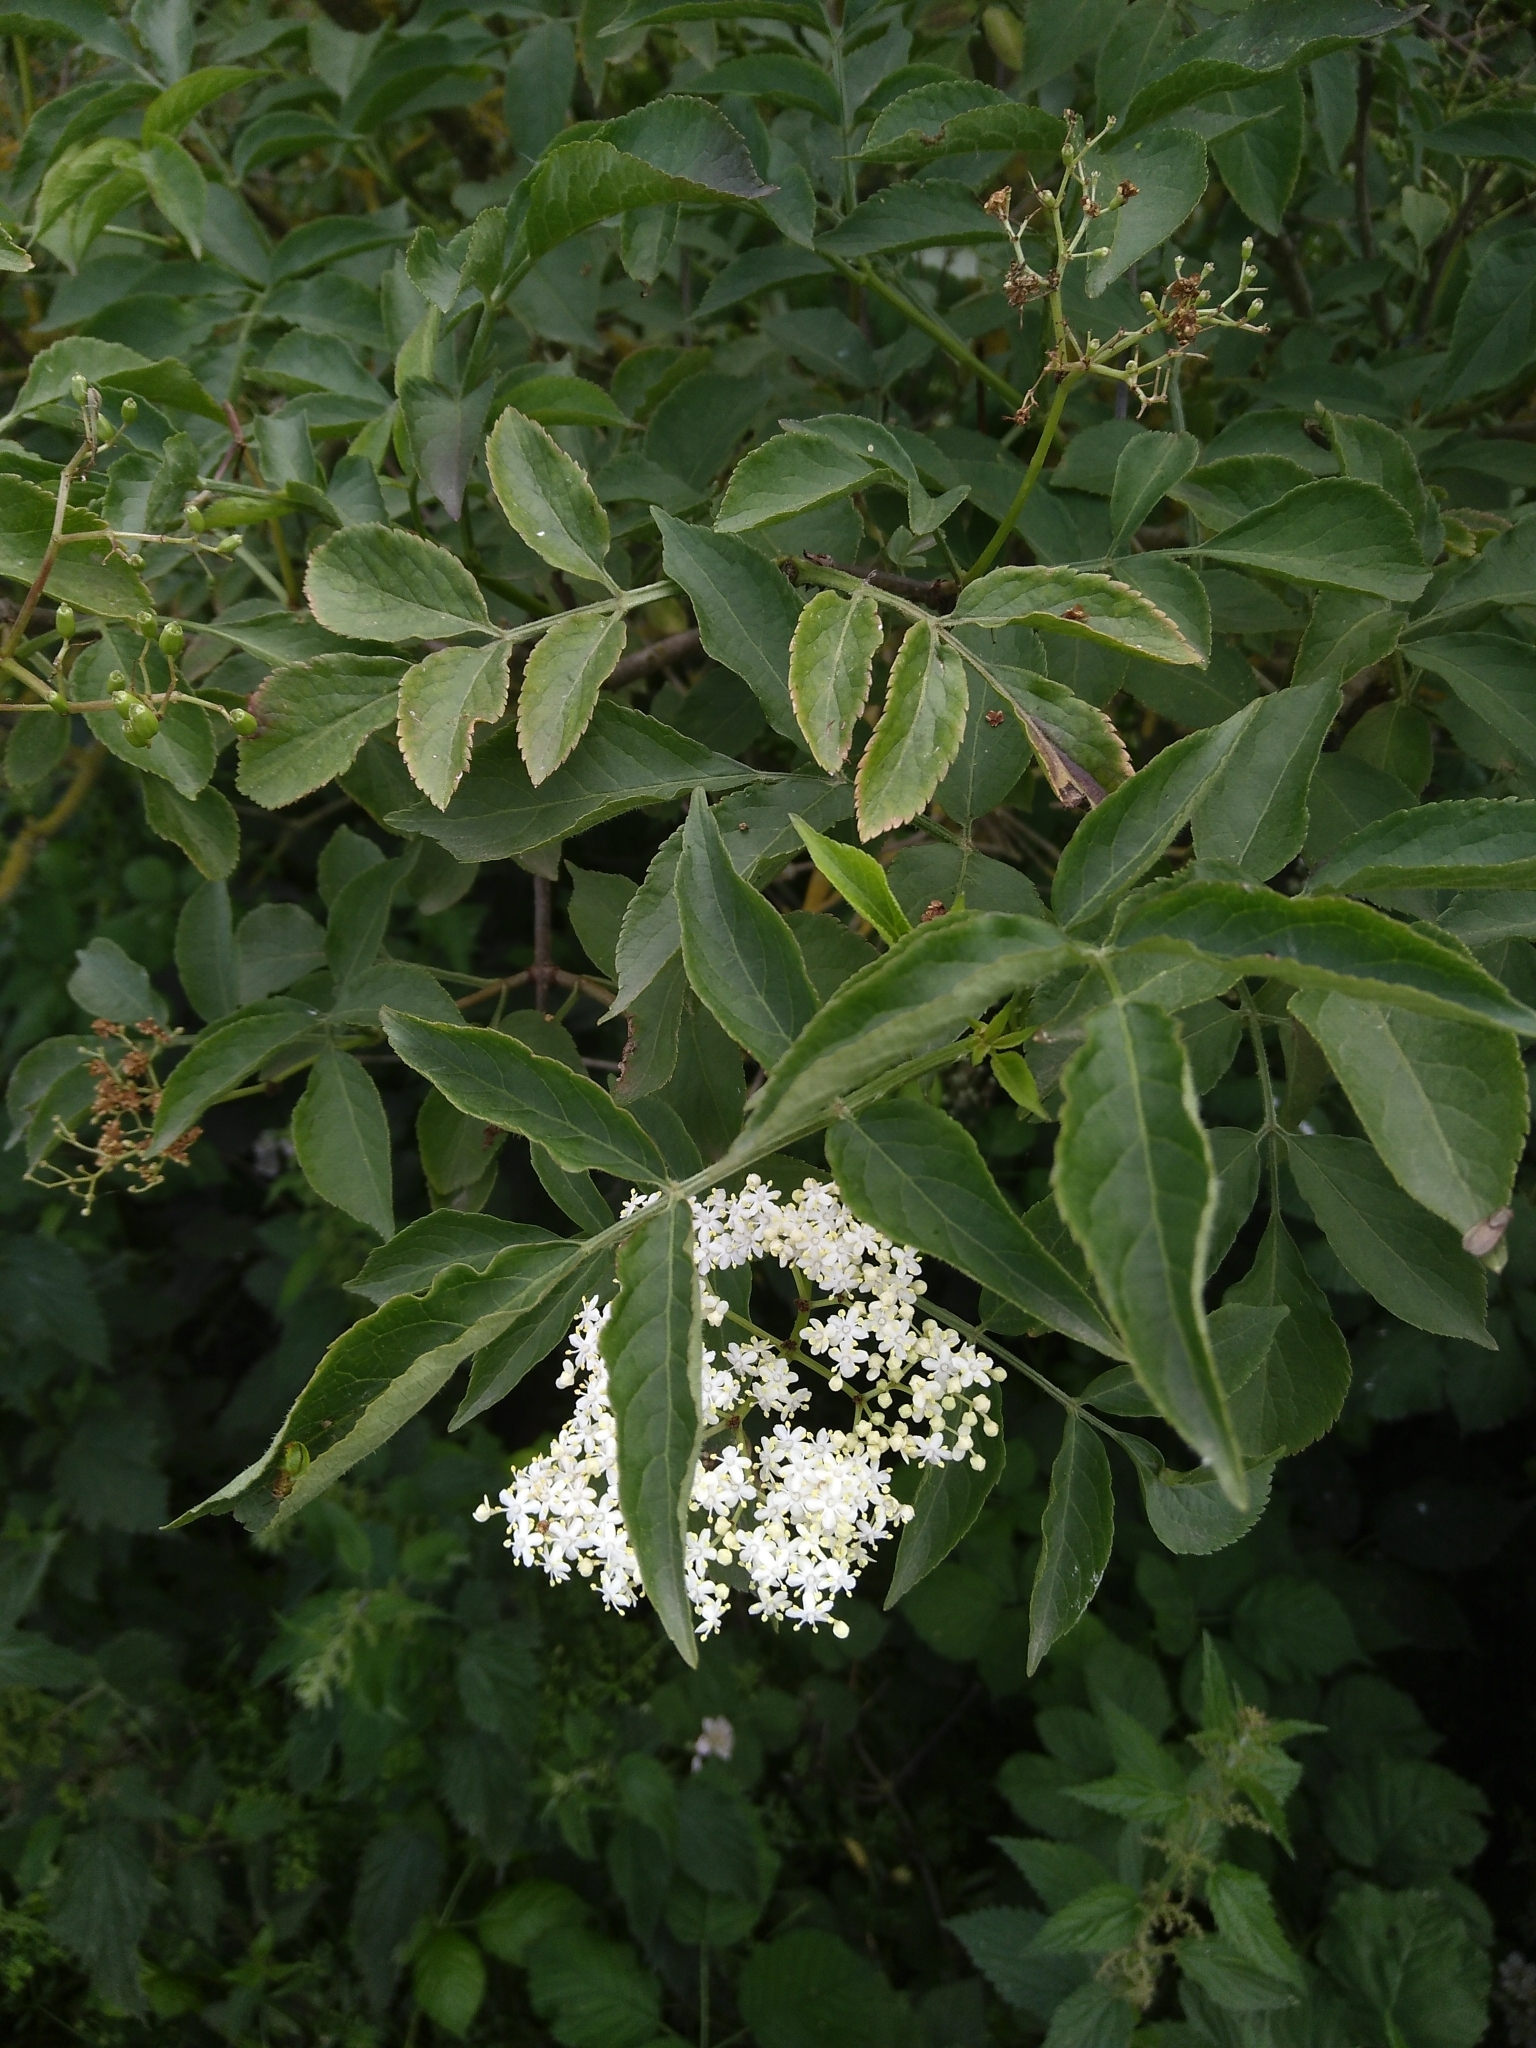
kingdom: Plantae
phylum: Tracheophyta
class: Magnoliopsida
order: Dipsacales
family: Viburnaceae
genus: Sambucus
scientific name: Sambucus nigra
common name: Elder
